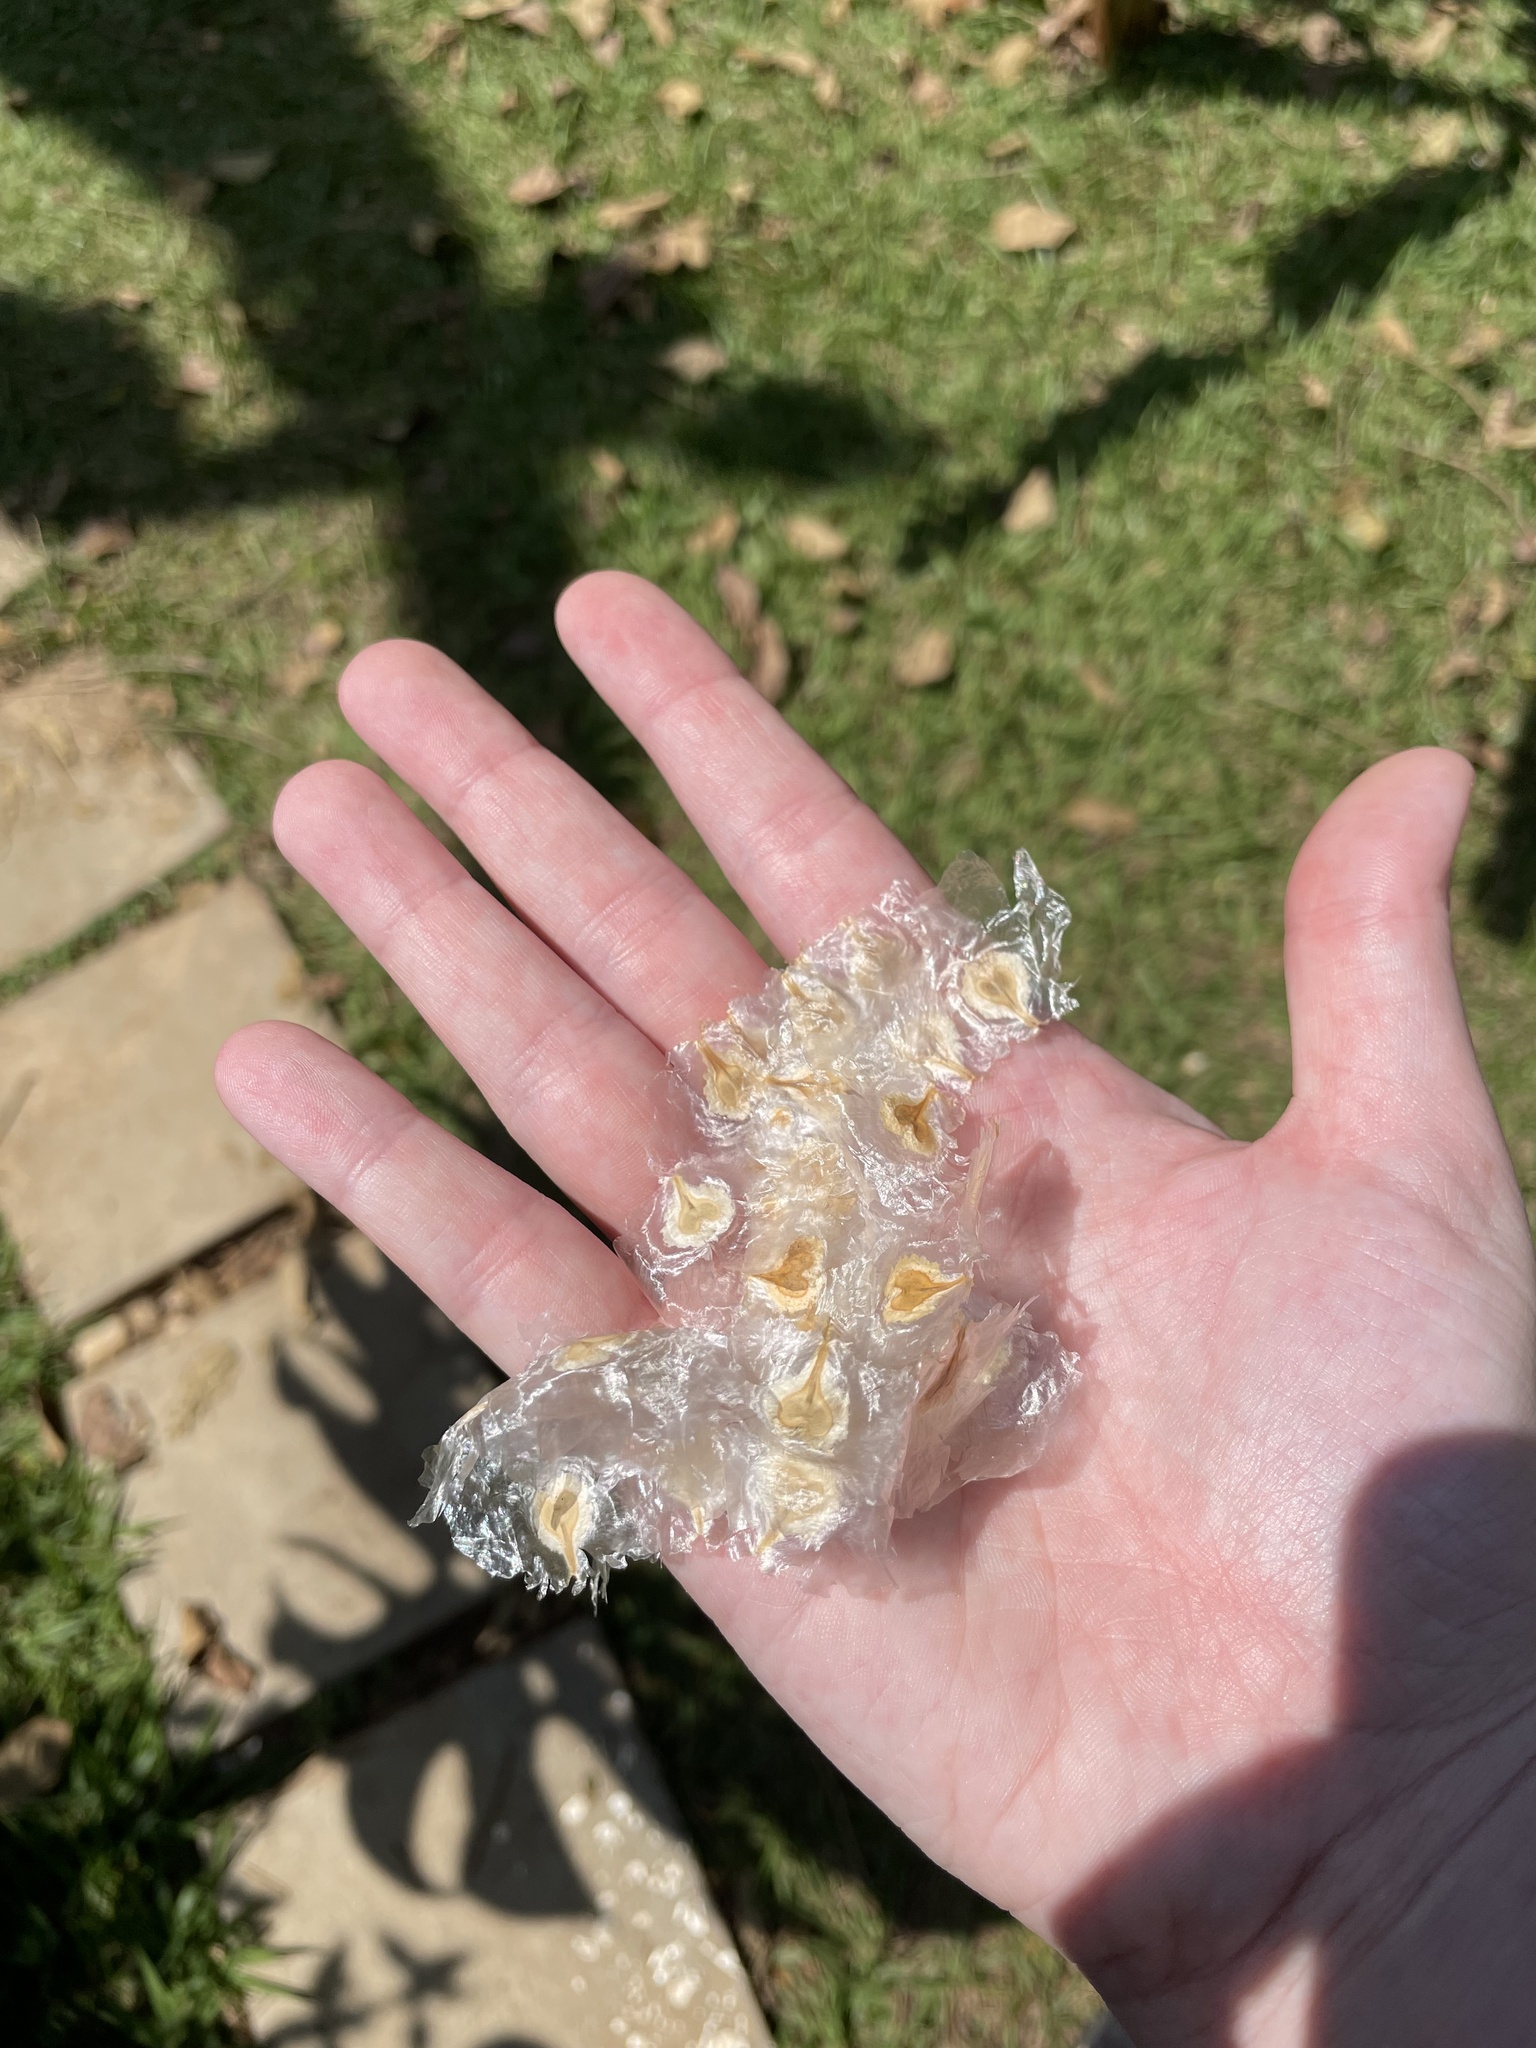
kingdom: Plantae
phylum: Tracheophyta
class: Magnoliopsida
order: Lamiales
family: Bignoniaceae
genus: Spathodea
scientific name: Spathodea campanulata
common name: African tuliptree
